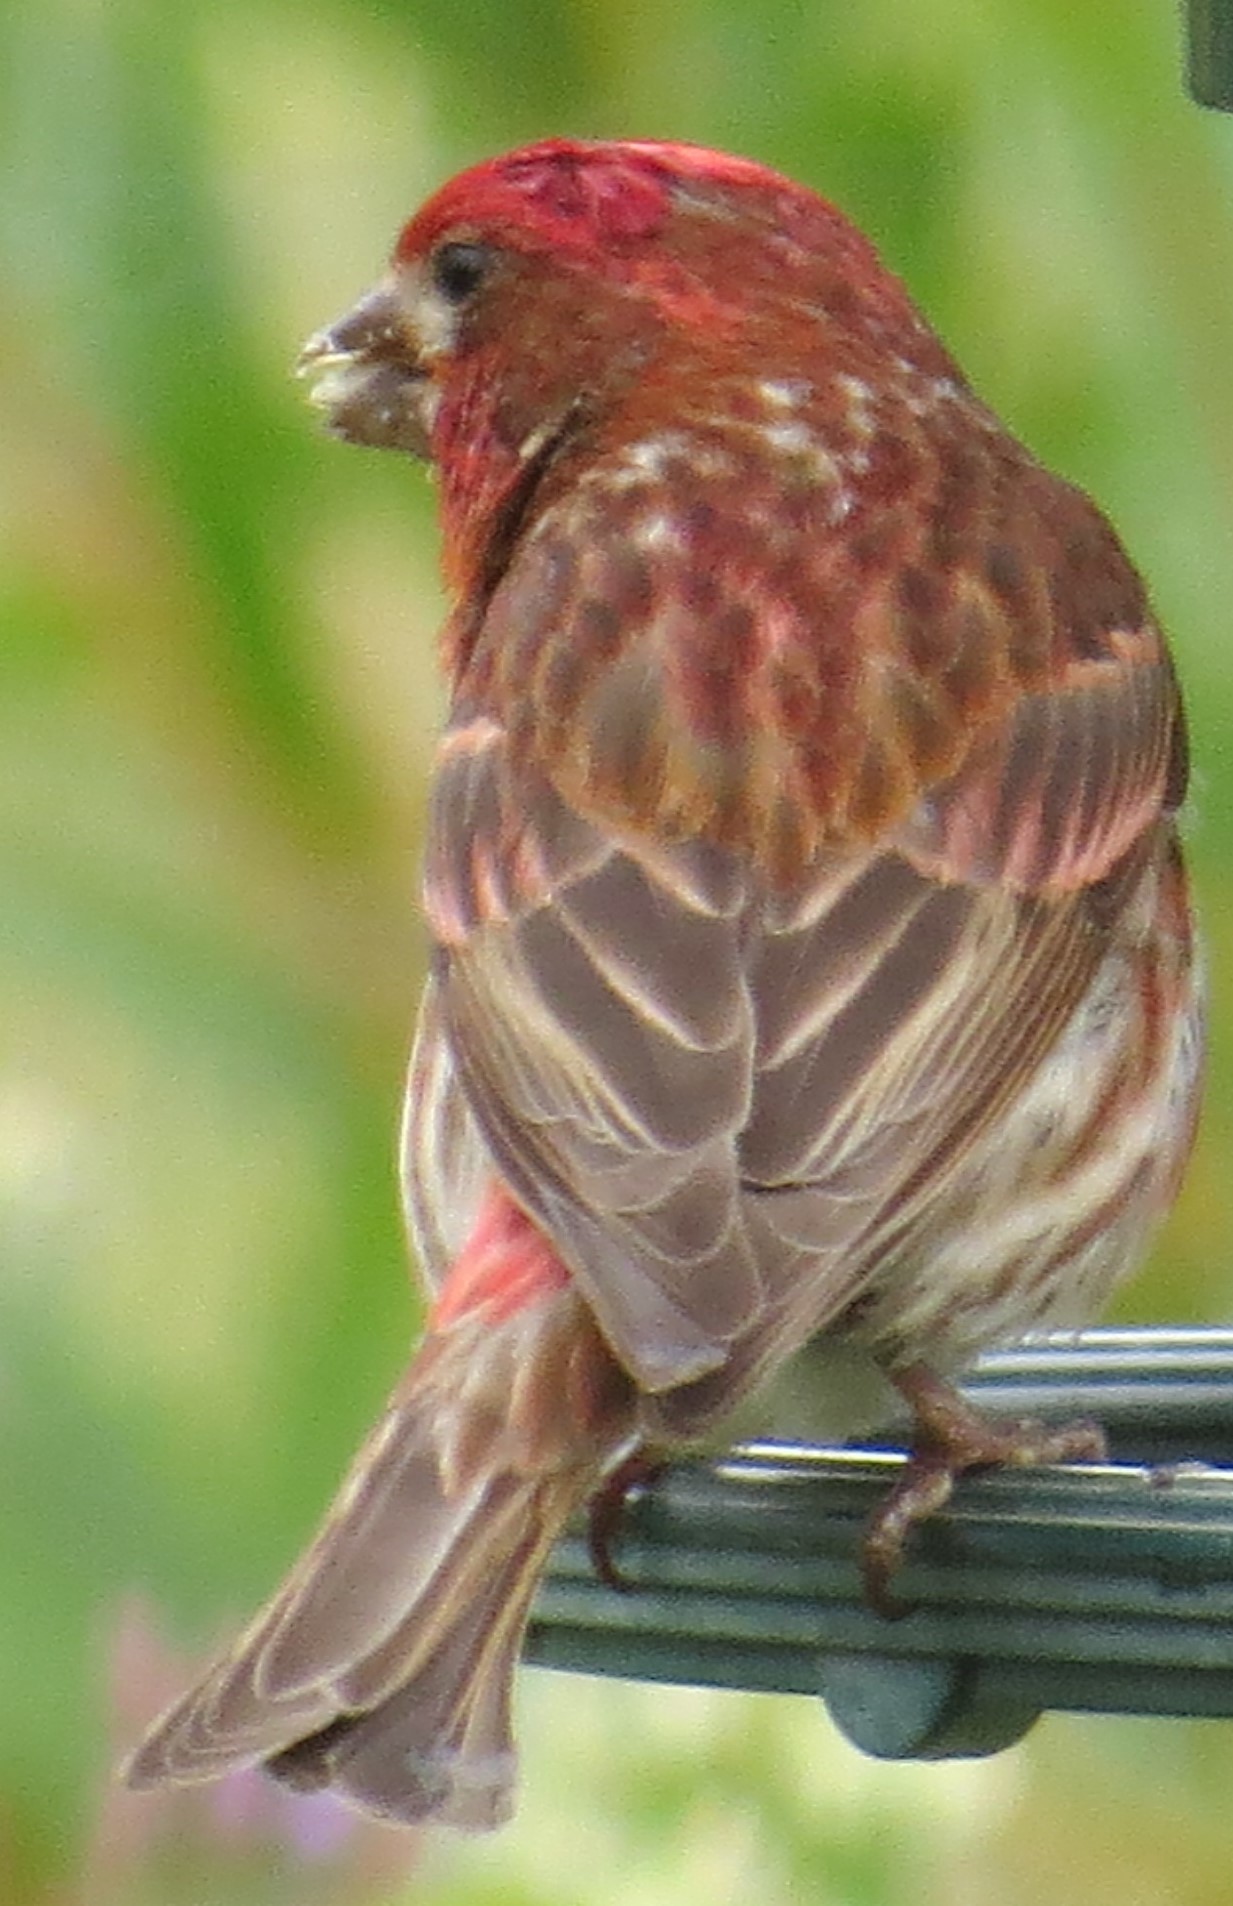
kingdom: Animalia
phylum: Chordata
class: Aves
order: Passeriformes
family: Fringillidae
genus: Haemorhous
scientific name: Haemorhous purpureus
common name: Purple finch
